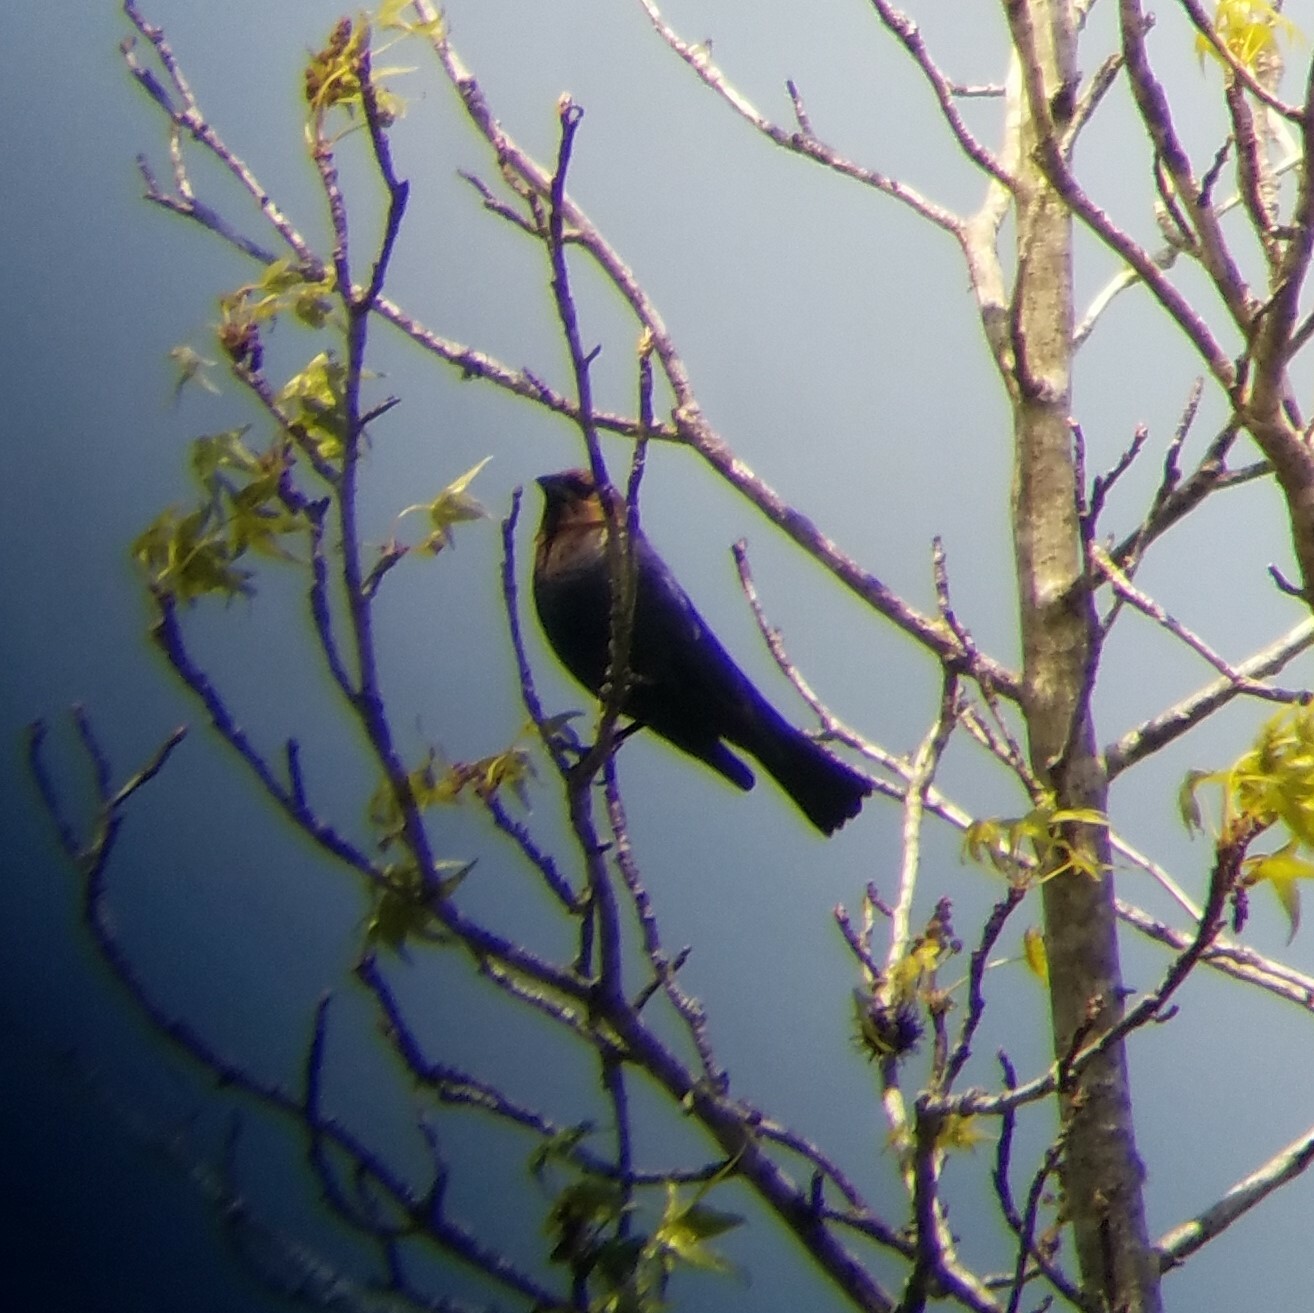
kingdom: Animalia
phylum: Chordata
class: Aves
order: Passeriformes
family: Icteridae
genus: Molothrus
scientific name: Molothrus ater
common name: Brown-headed cowbird
